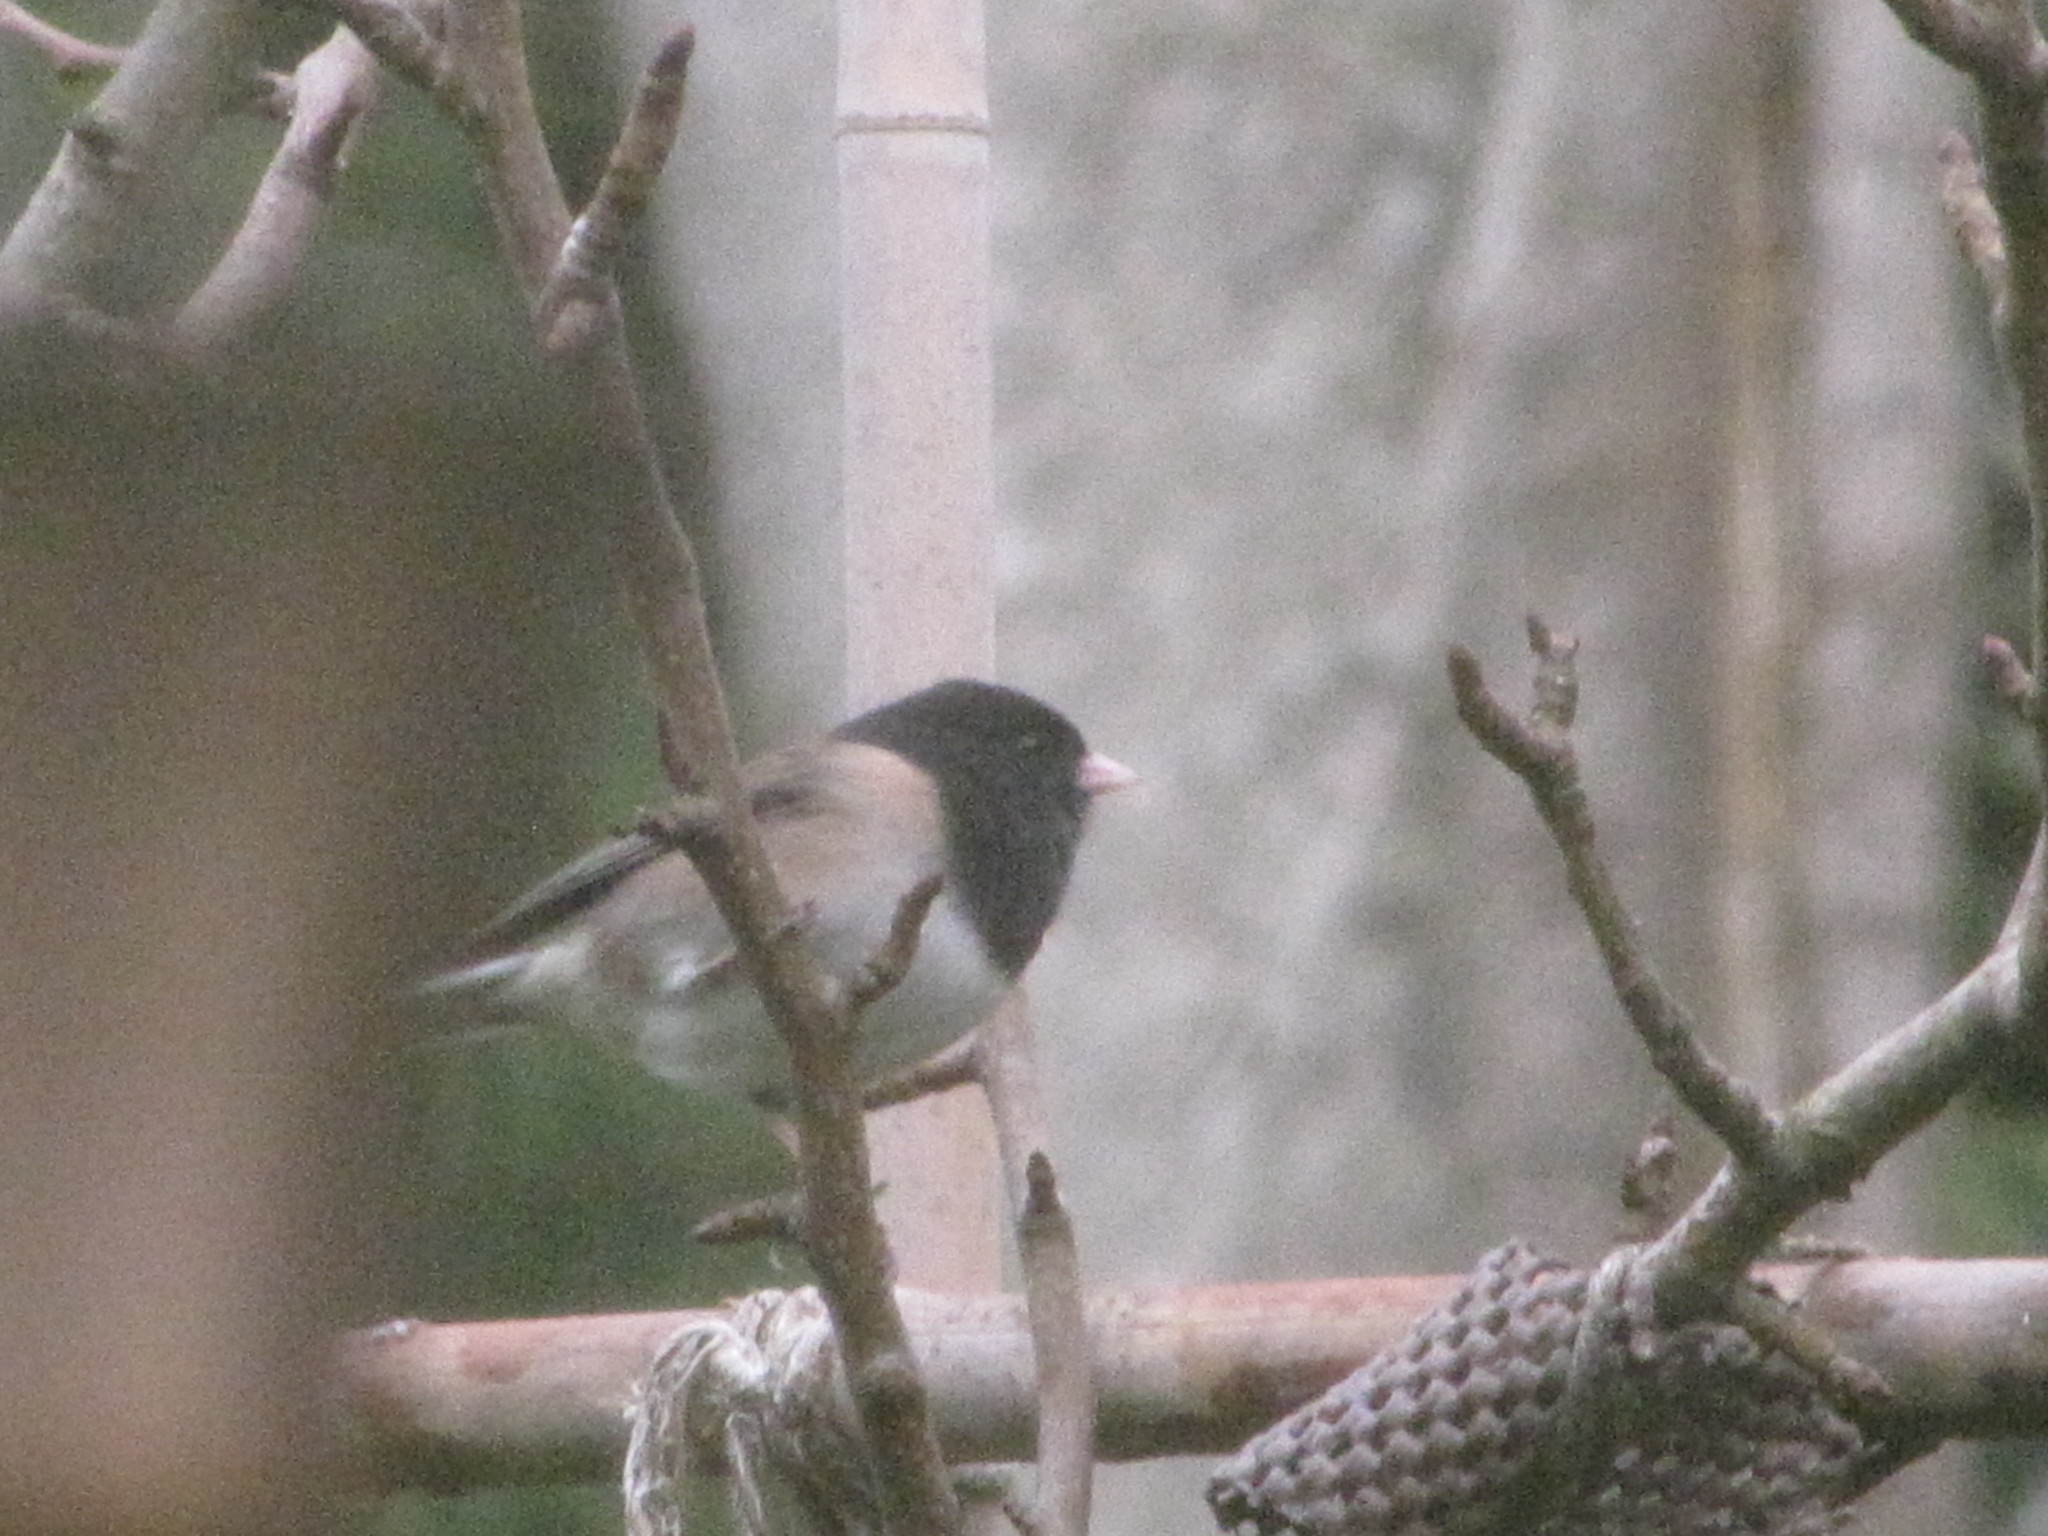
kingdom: Animalia
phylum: Chordata
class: Aves
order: Passeriformes
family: Passerellidae
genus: Junco
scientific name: Junco hyemalis
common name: Dark-eyed junco
